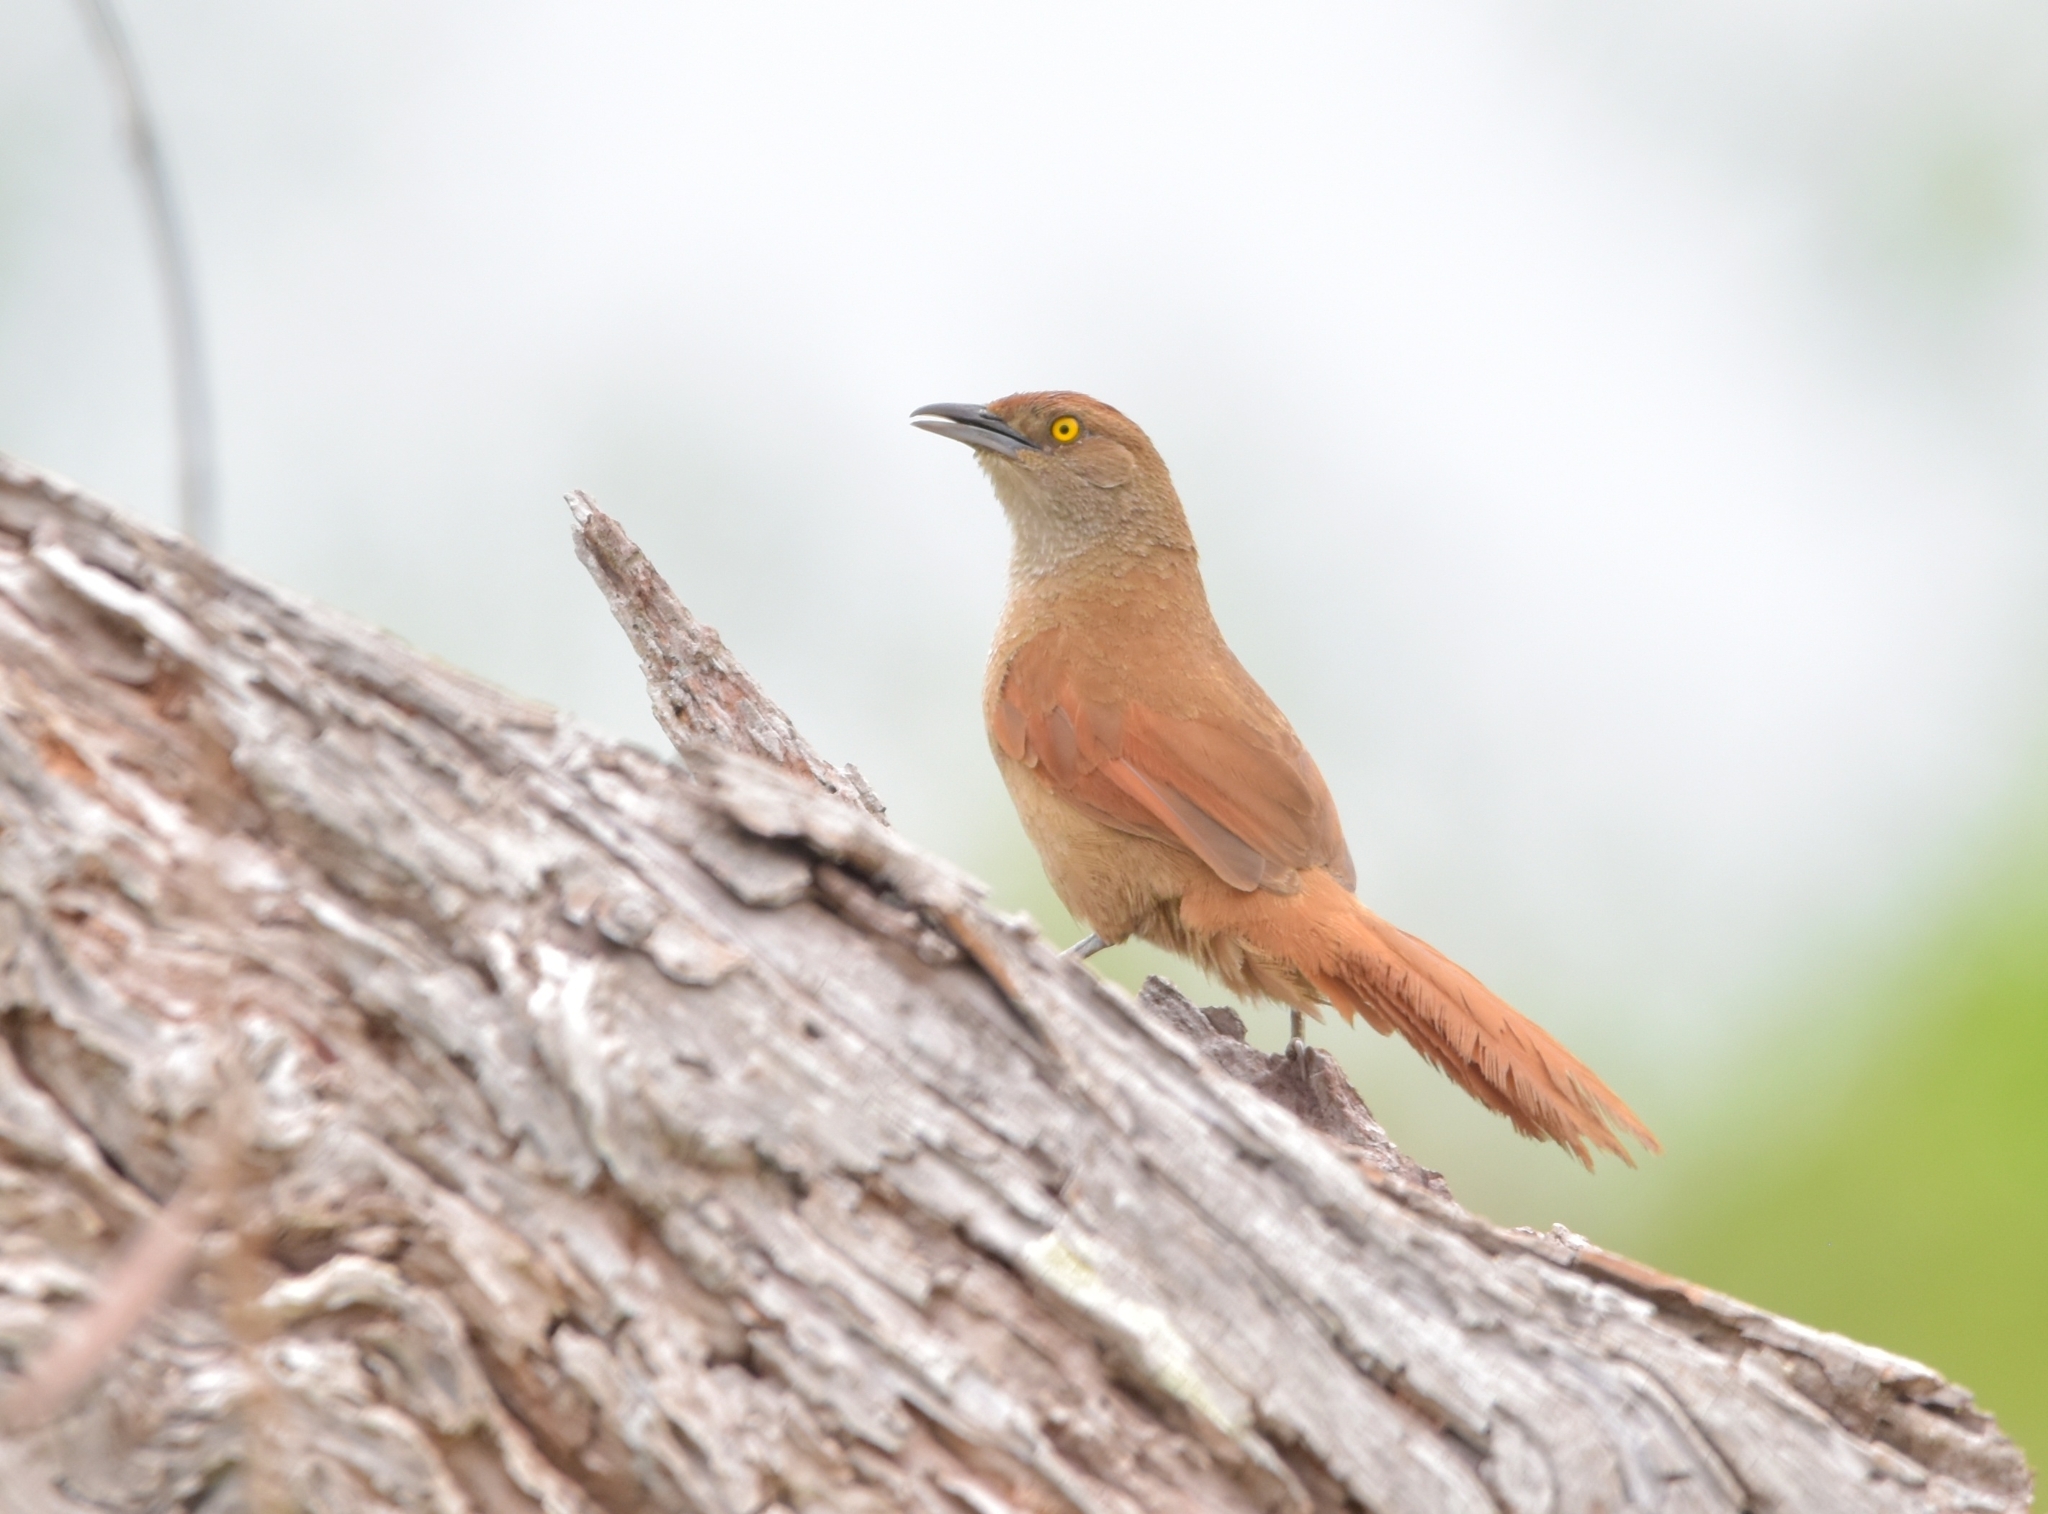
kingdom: Animalia
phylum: Chordata
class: Aves
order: Passeriformes
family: Furnariidae
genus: Phacellodomus
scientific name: Phacellodomus ruber
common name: Greater thornbird
